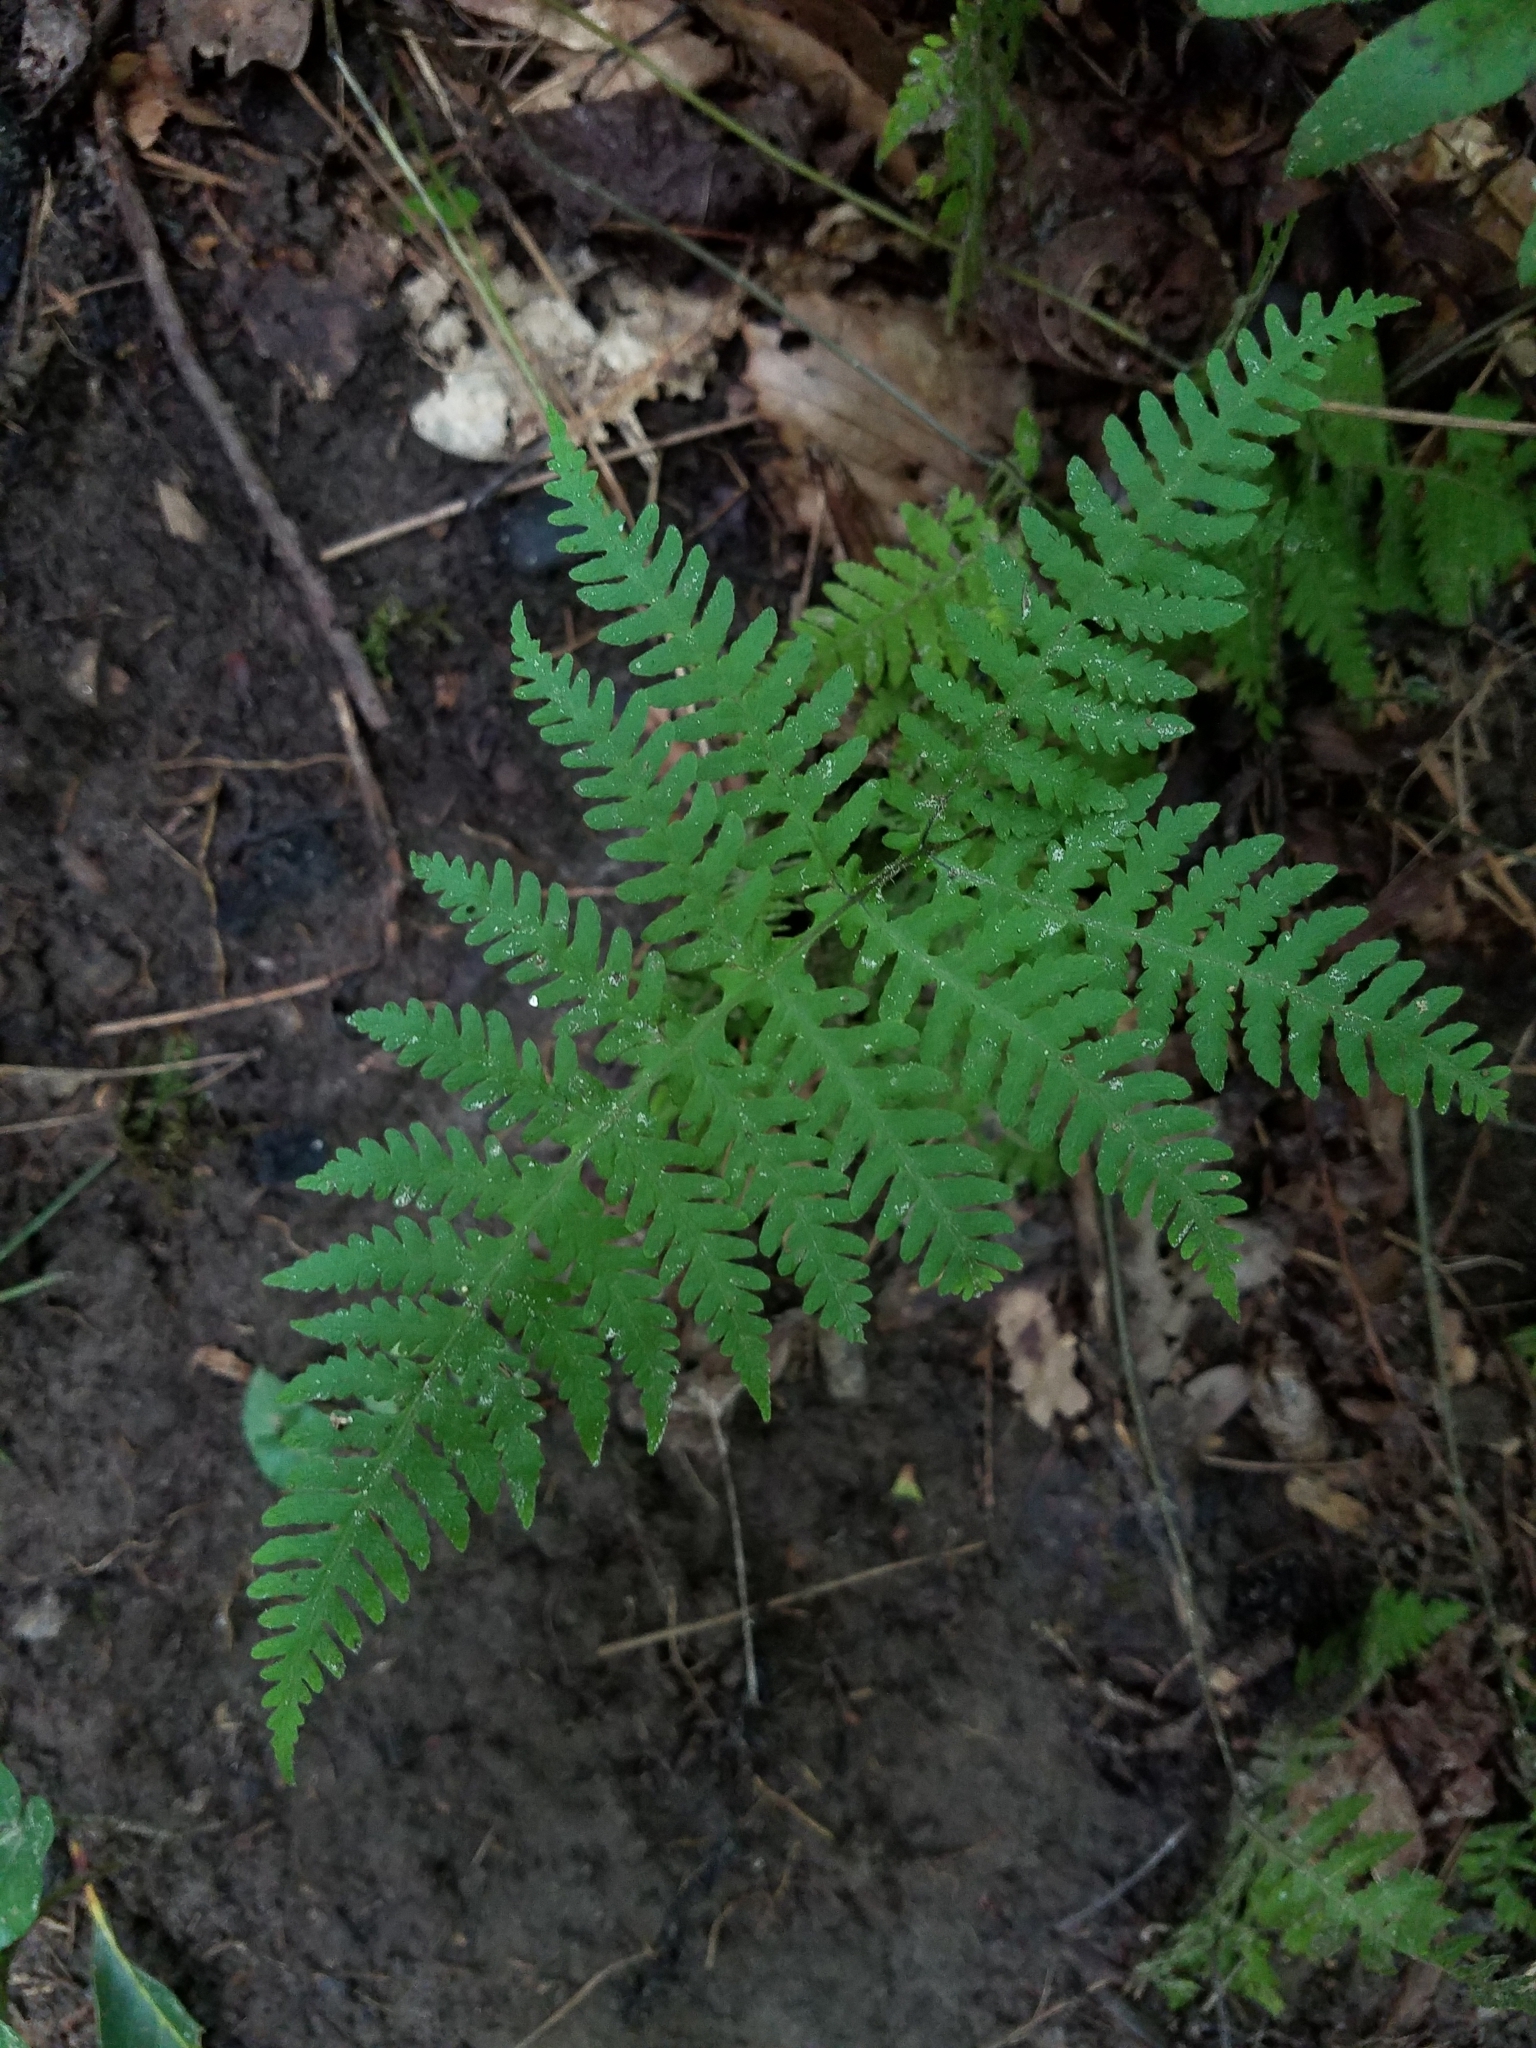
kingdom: Plantae
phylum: Tracheophyta
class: Polypodiopsida
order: Polypodiales
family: Thelypteridaceae
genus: Phegopteris
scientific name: Phegopteris hexagonoptera
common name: Broad beech fern
